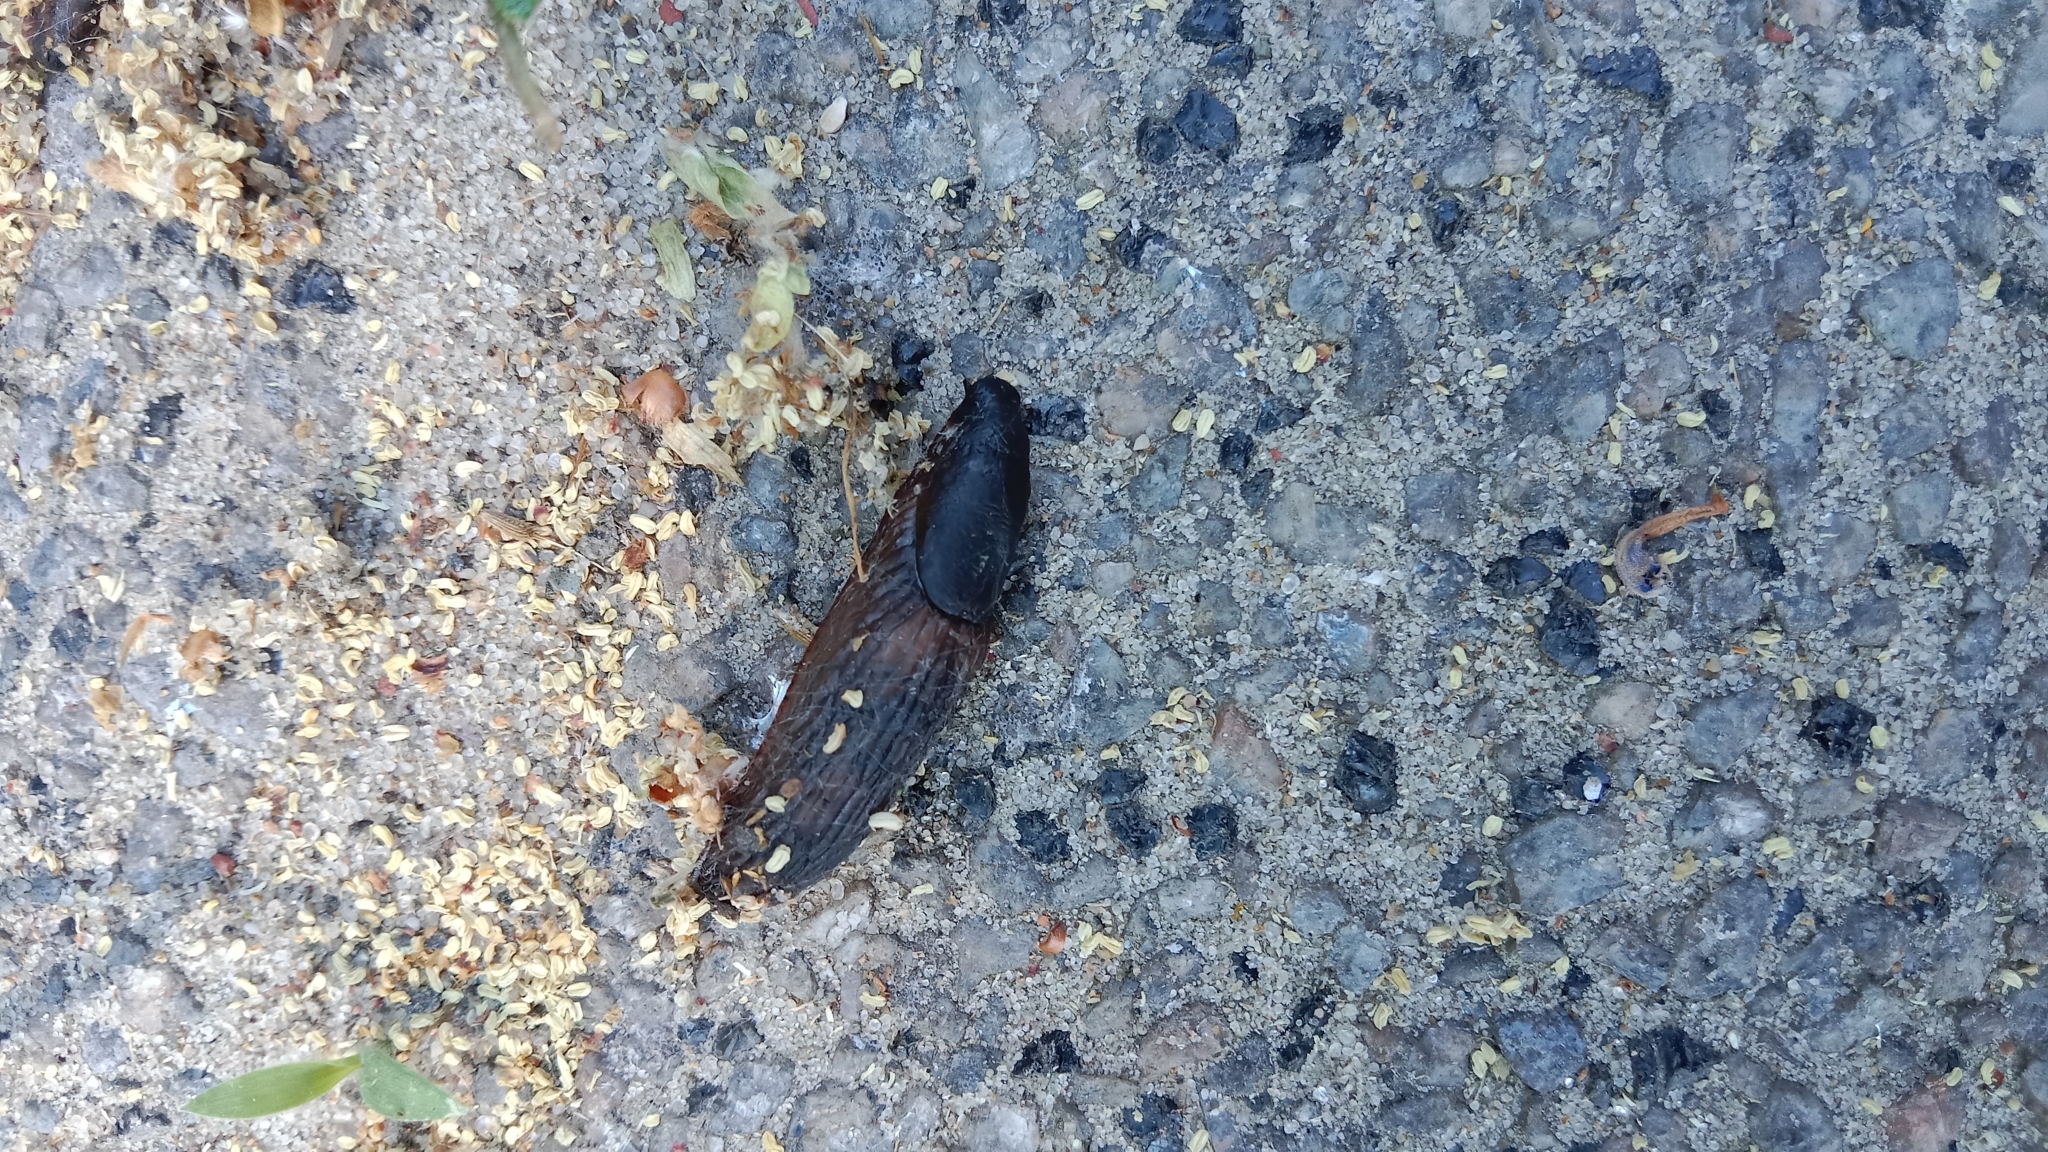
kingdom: Animalia
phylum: Mollusca
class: Gastropoda
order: Stylommatophora
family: Arionidae
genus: Arion
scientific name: Arion vulgaris
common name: Lusitanian slug
